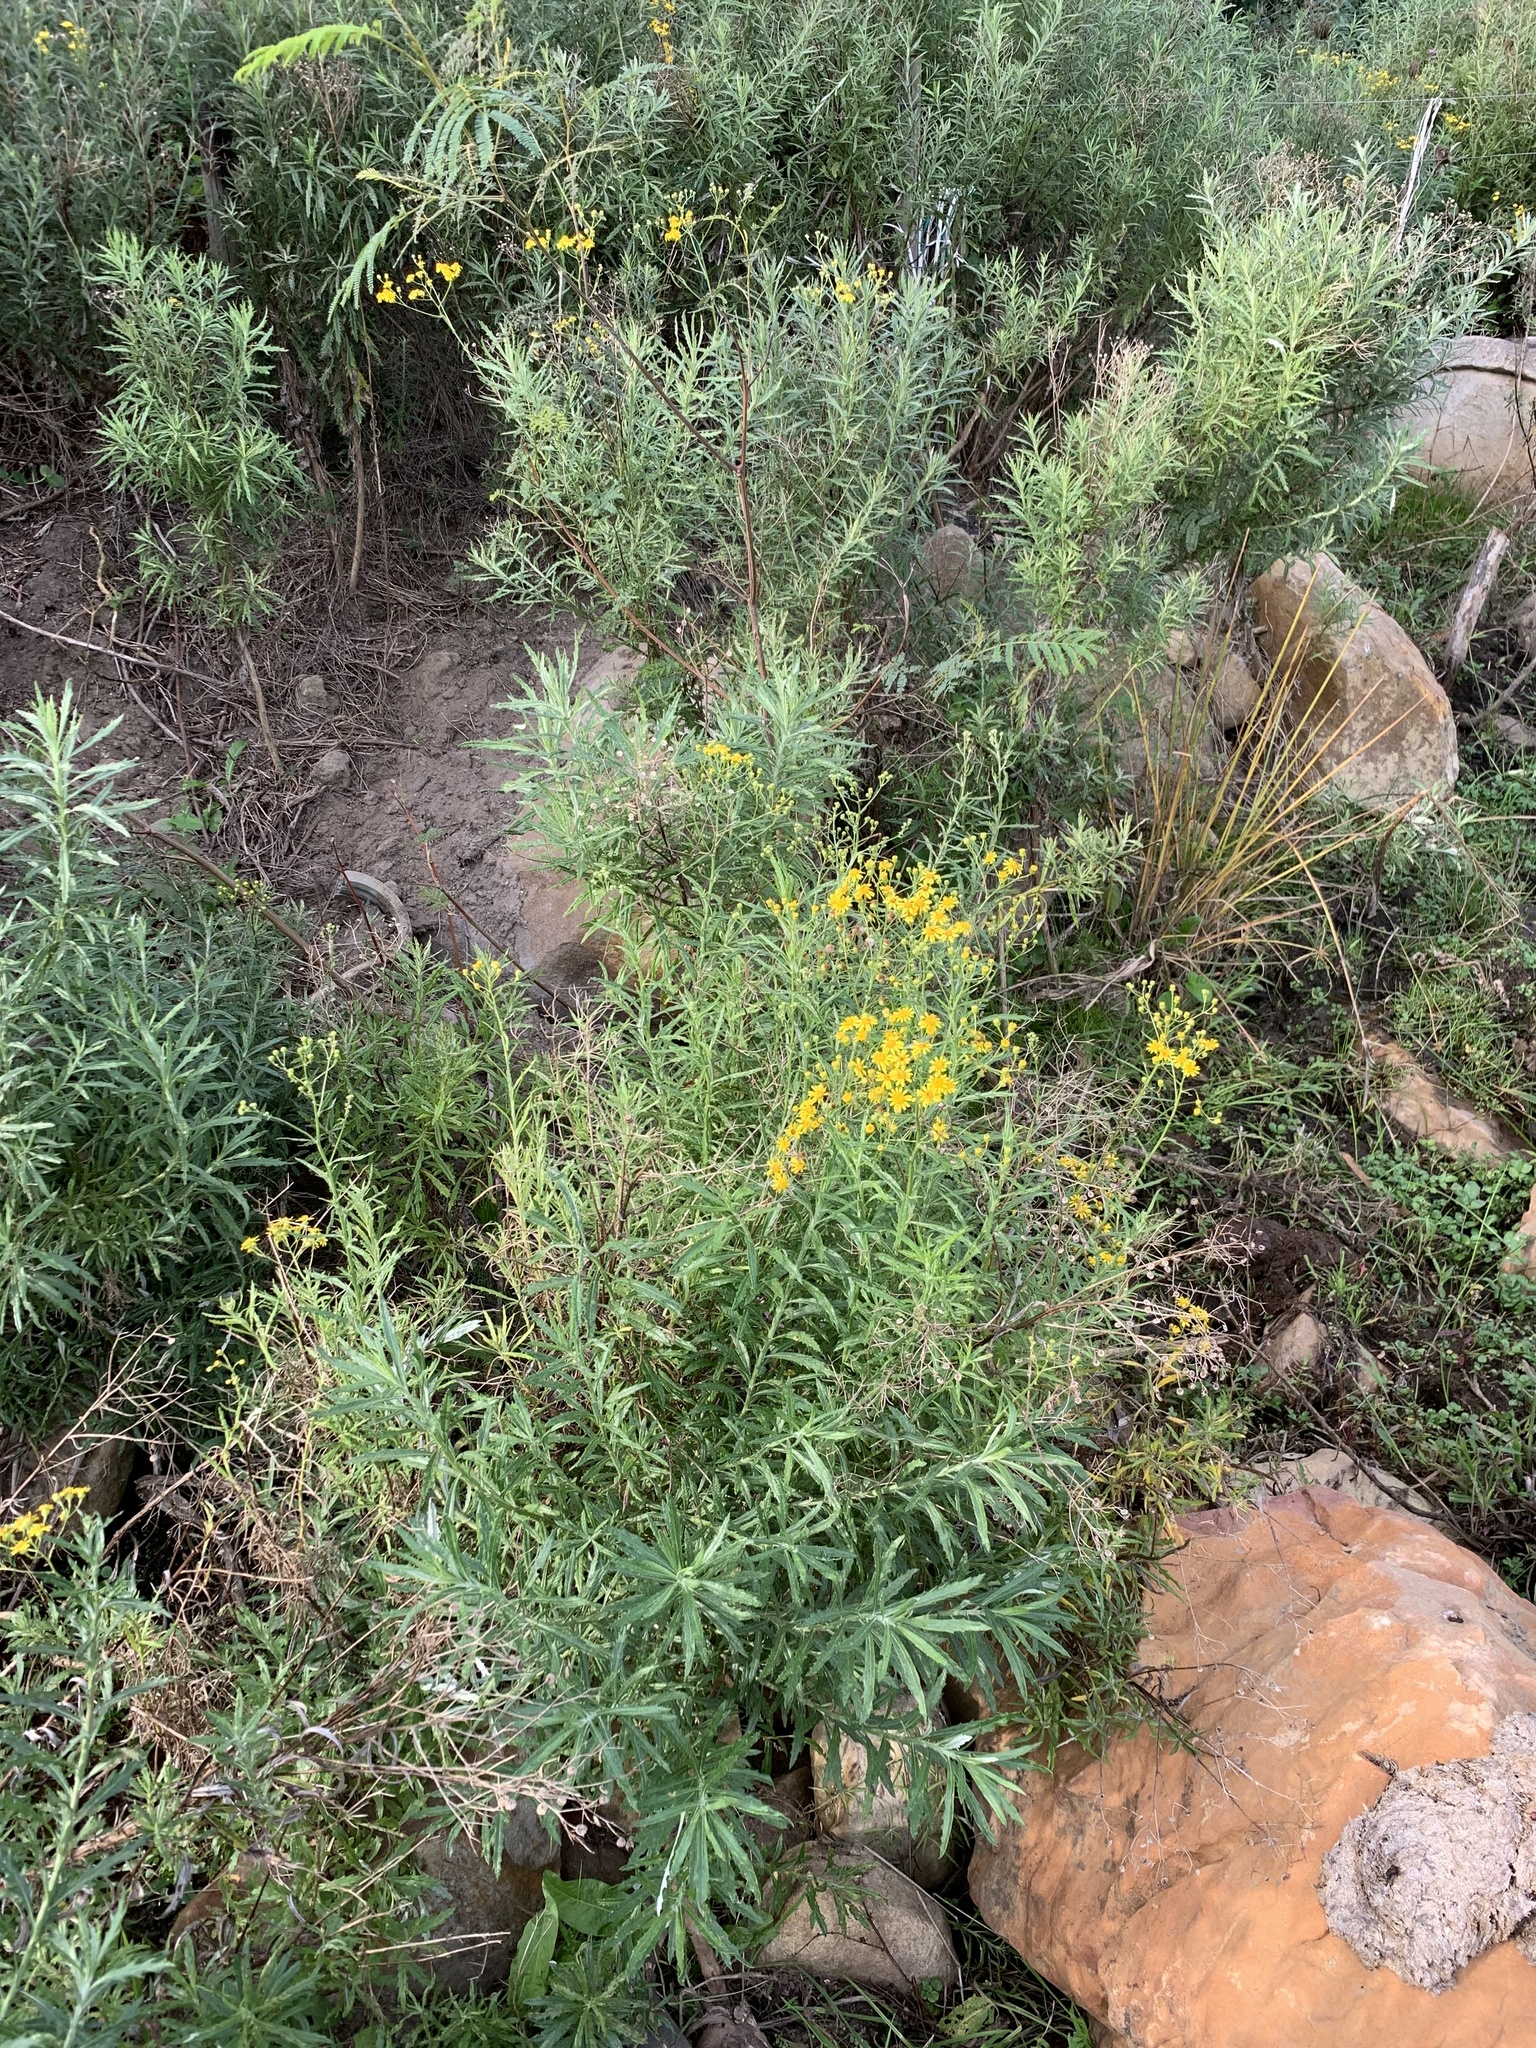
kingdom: Plantae
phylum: Tracheophyta
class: Magnoliopsida
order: Asterales
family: Asteraceae
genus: Senecio
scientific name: Senecio pterophorus
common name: Shoddy ragwort
